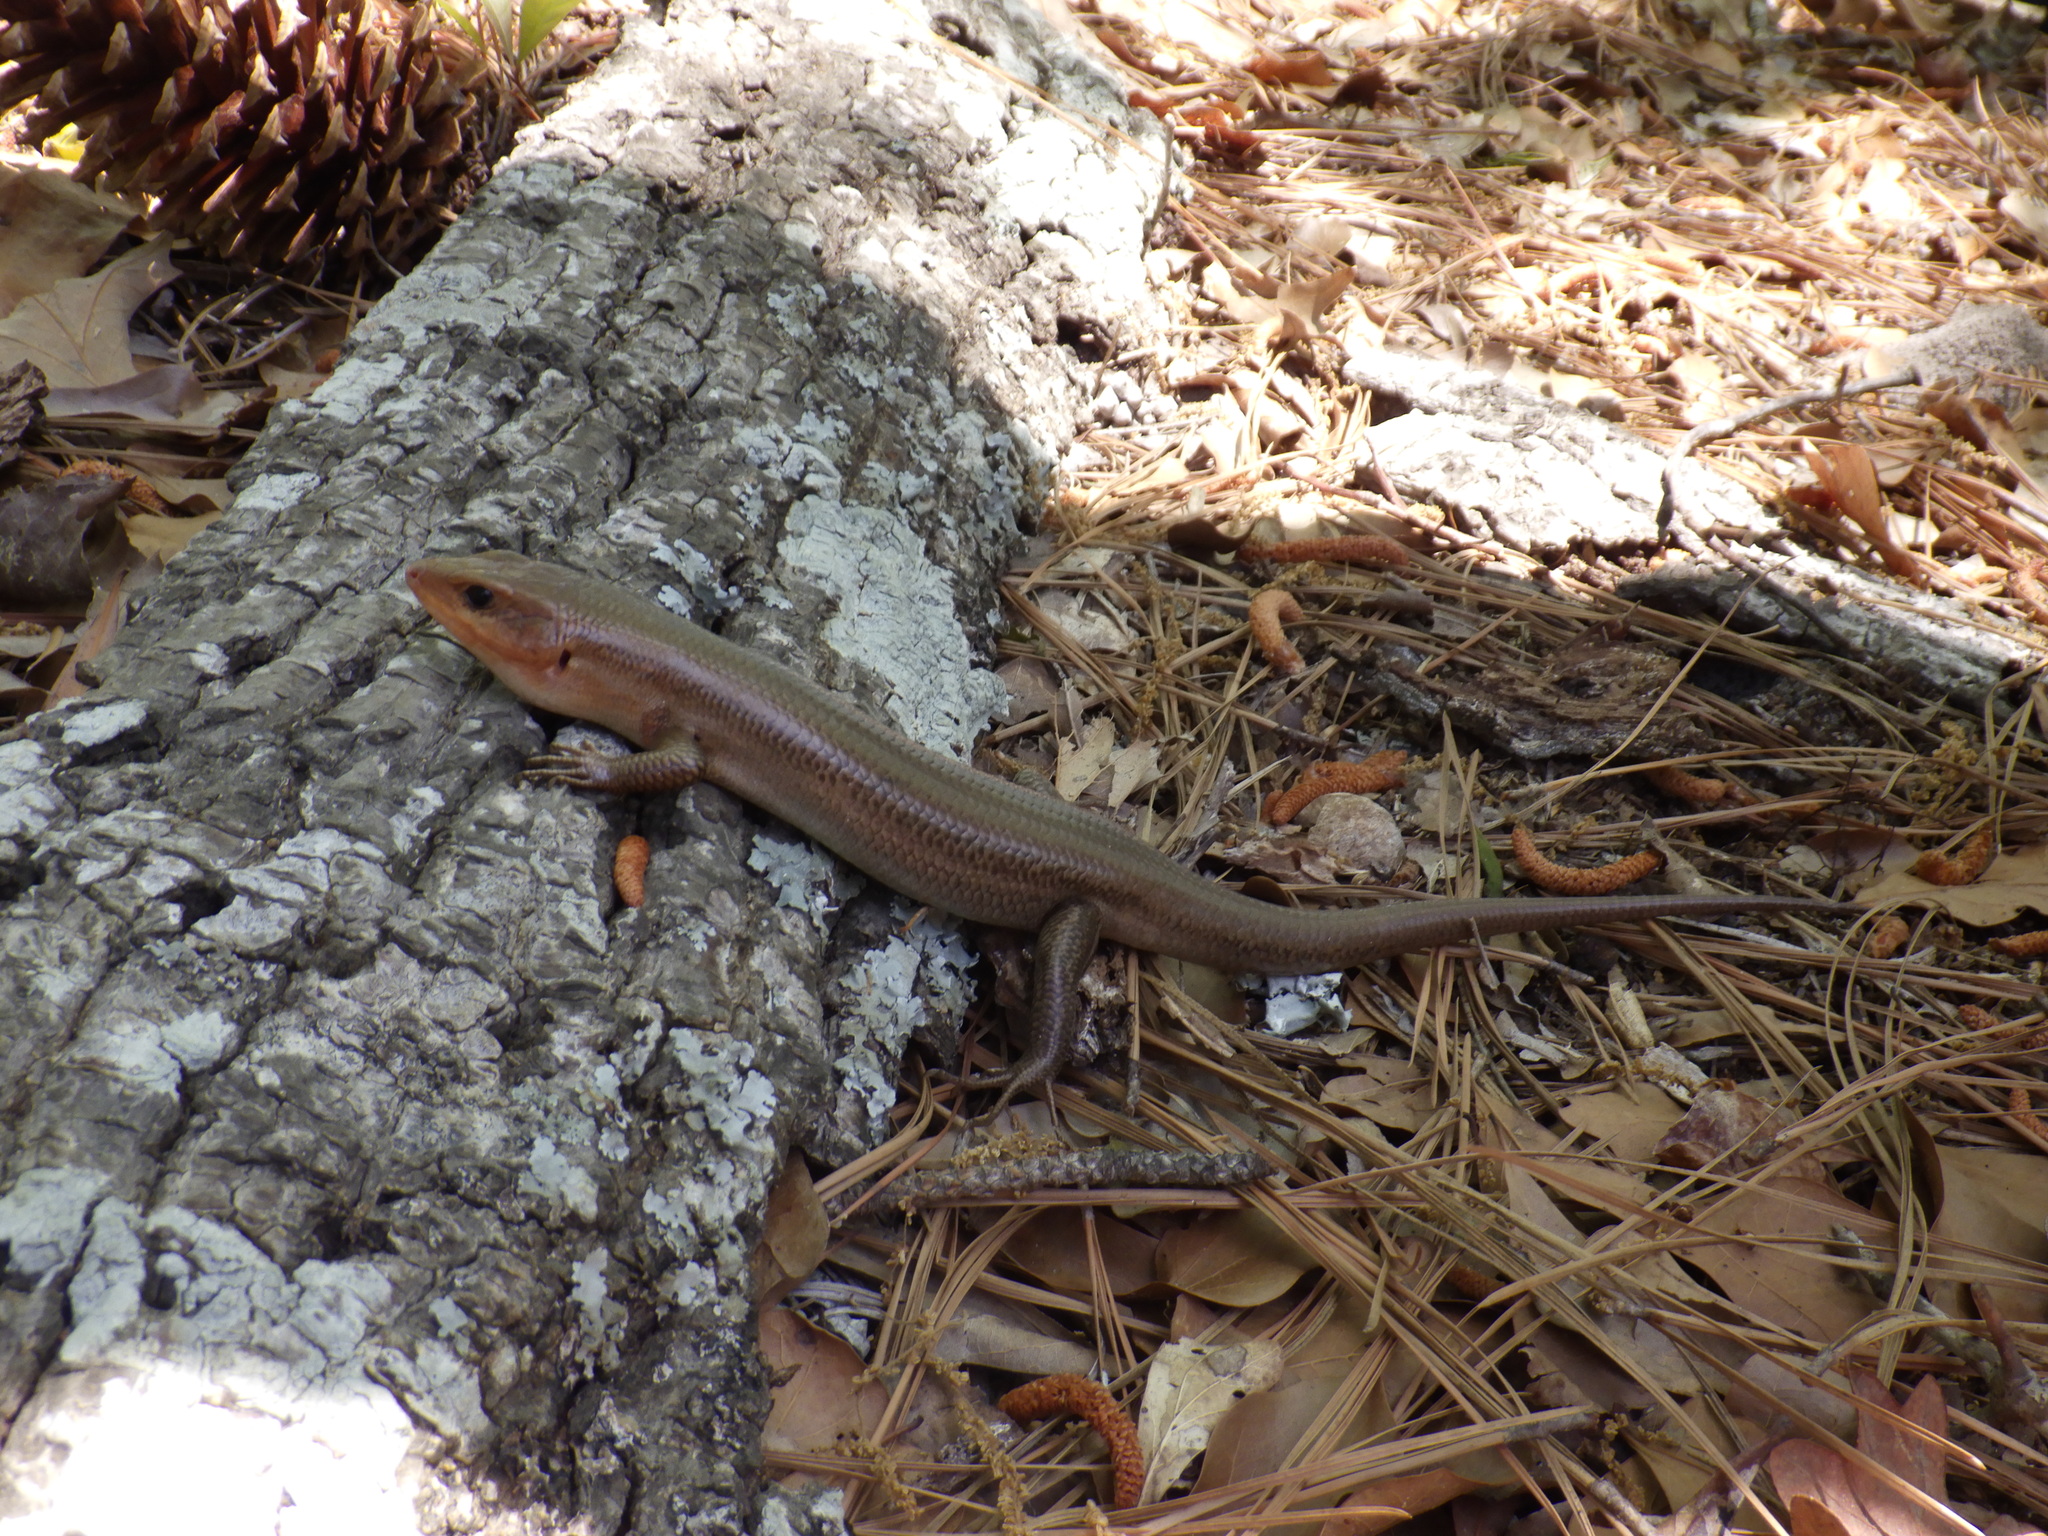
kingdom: Animalia
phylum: Chordata
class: Squamata
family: Scincidae
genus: Plestiodon
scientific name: Plestiodon laticeps
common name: Broadhead skink
